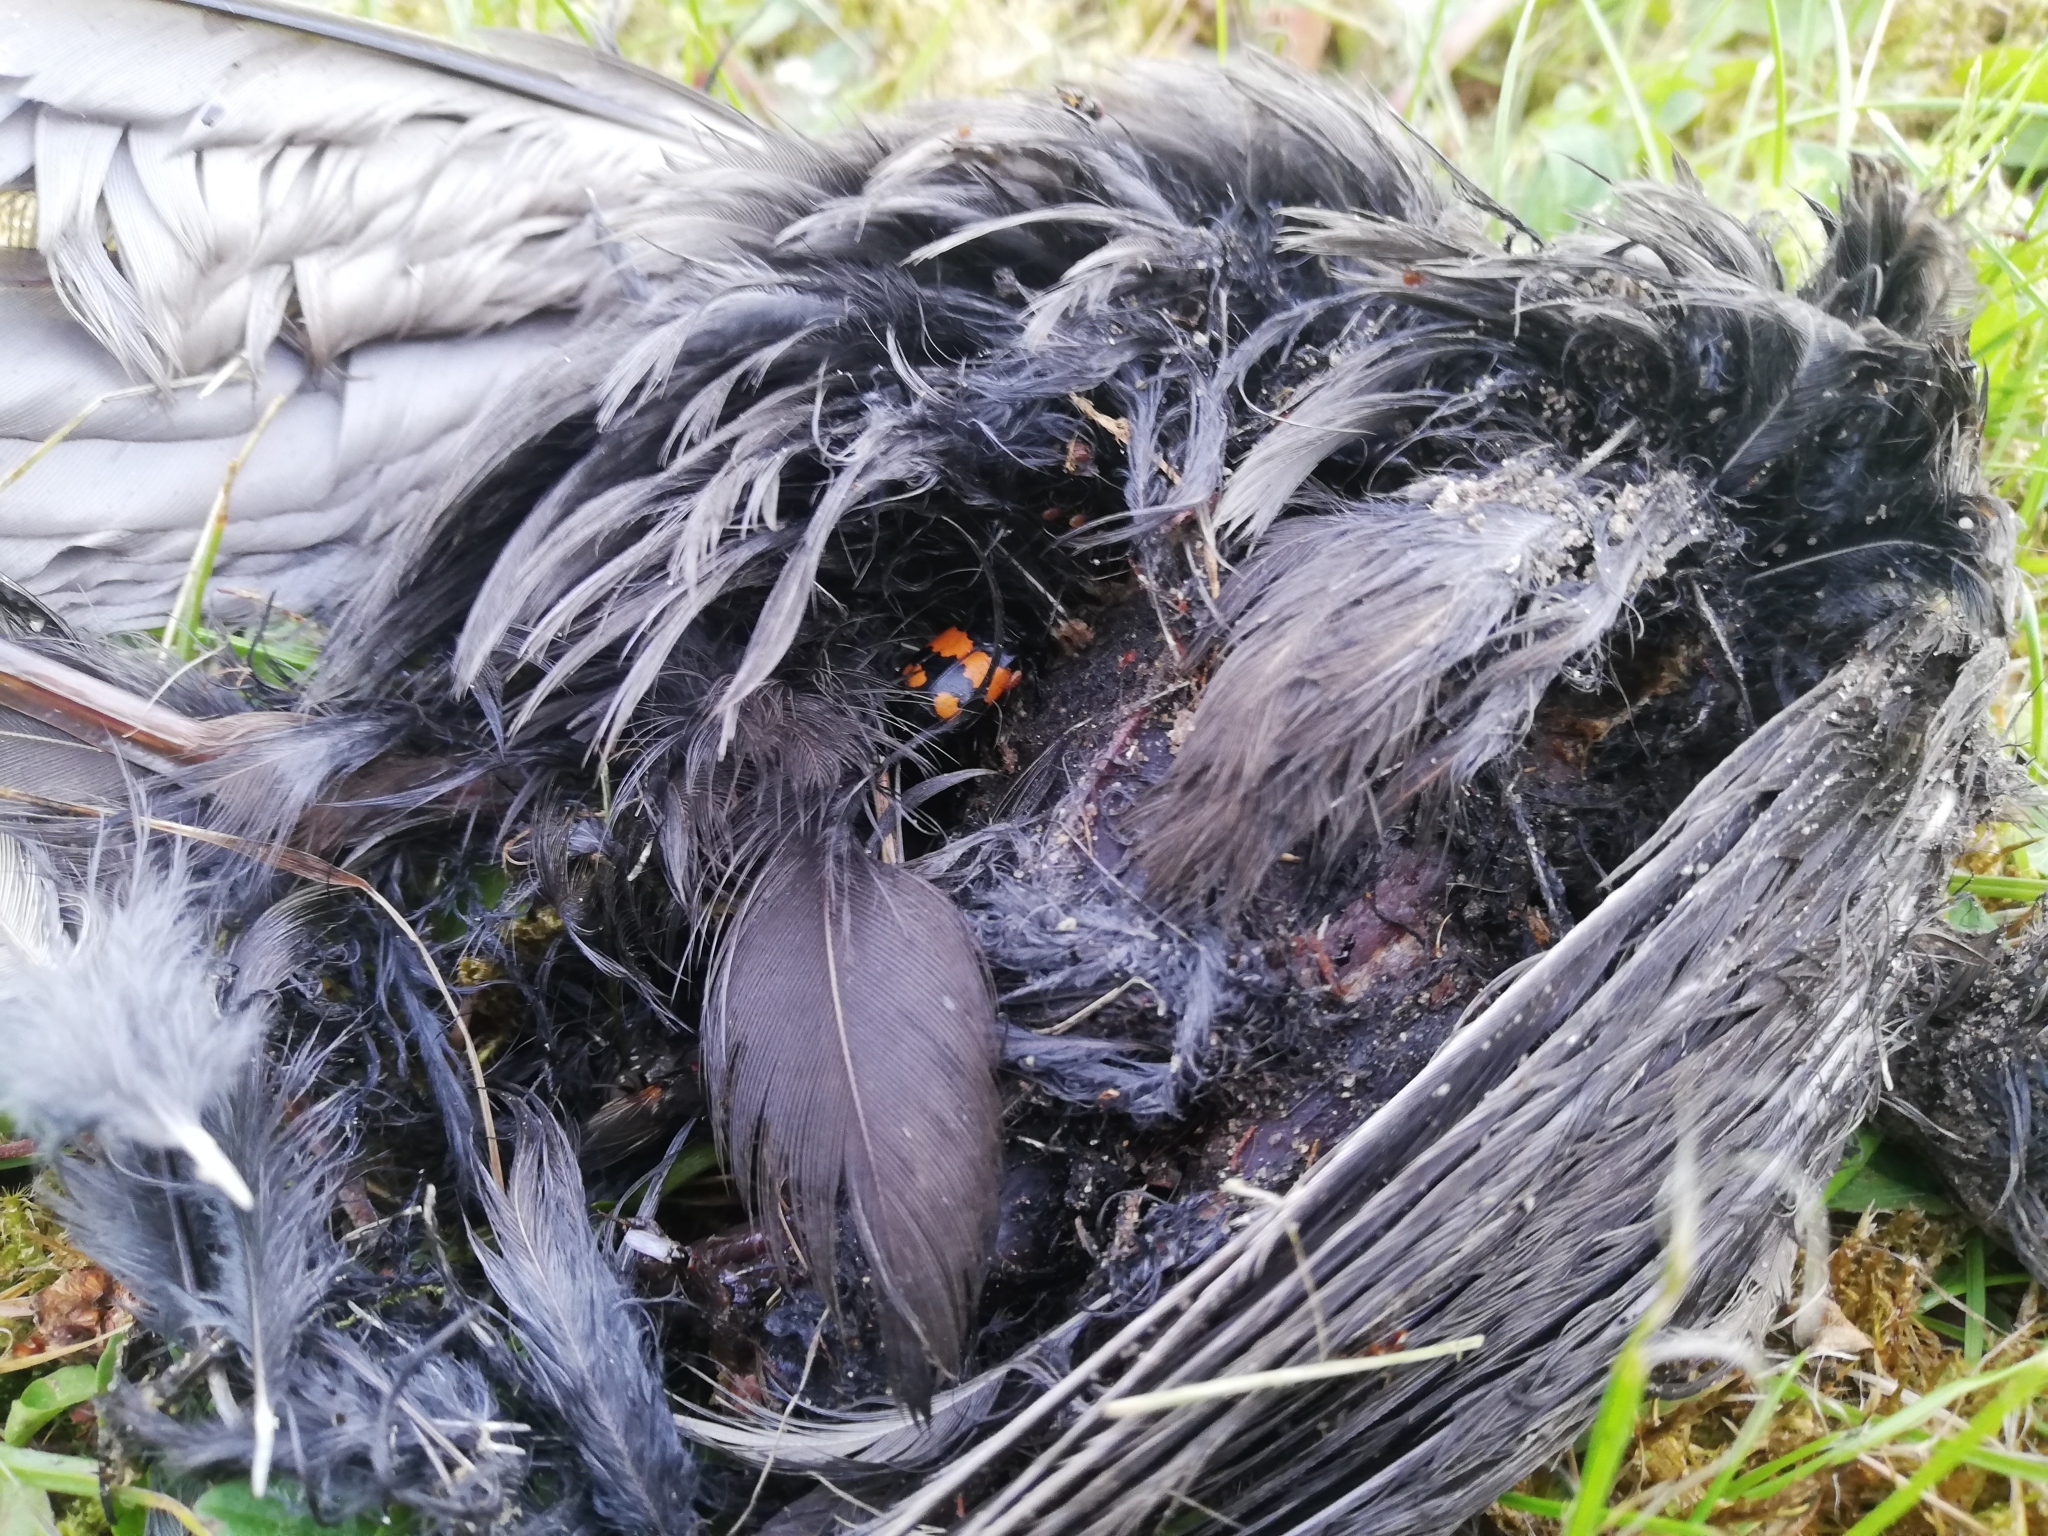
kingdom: Animalia
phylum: Arthropoda
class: Insecta
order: Coleoptera
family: Staphylinidae
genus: Nicrophorus
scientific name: Nicrophorus vespilloides
